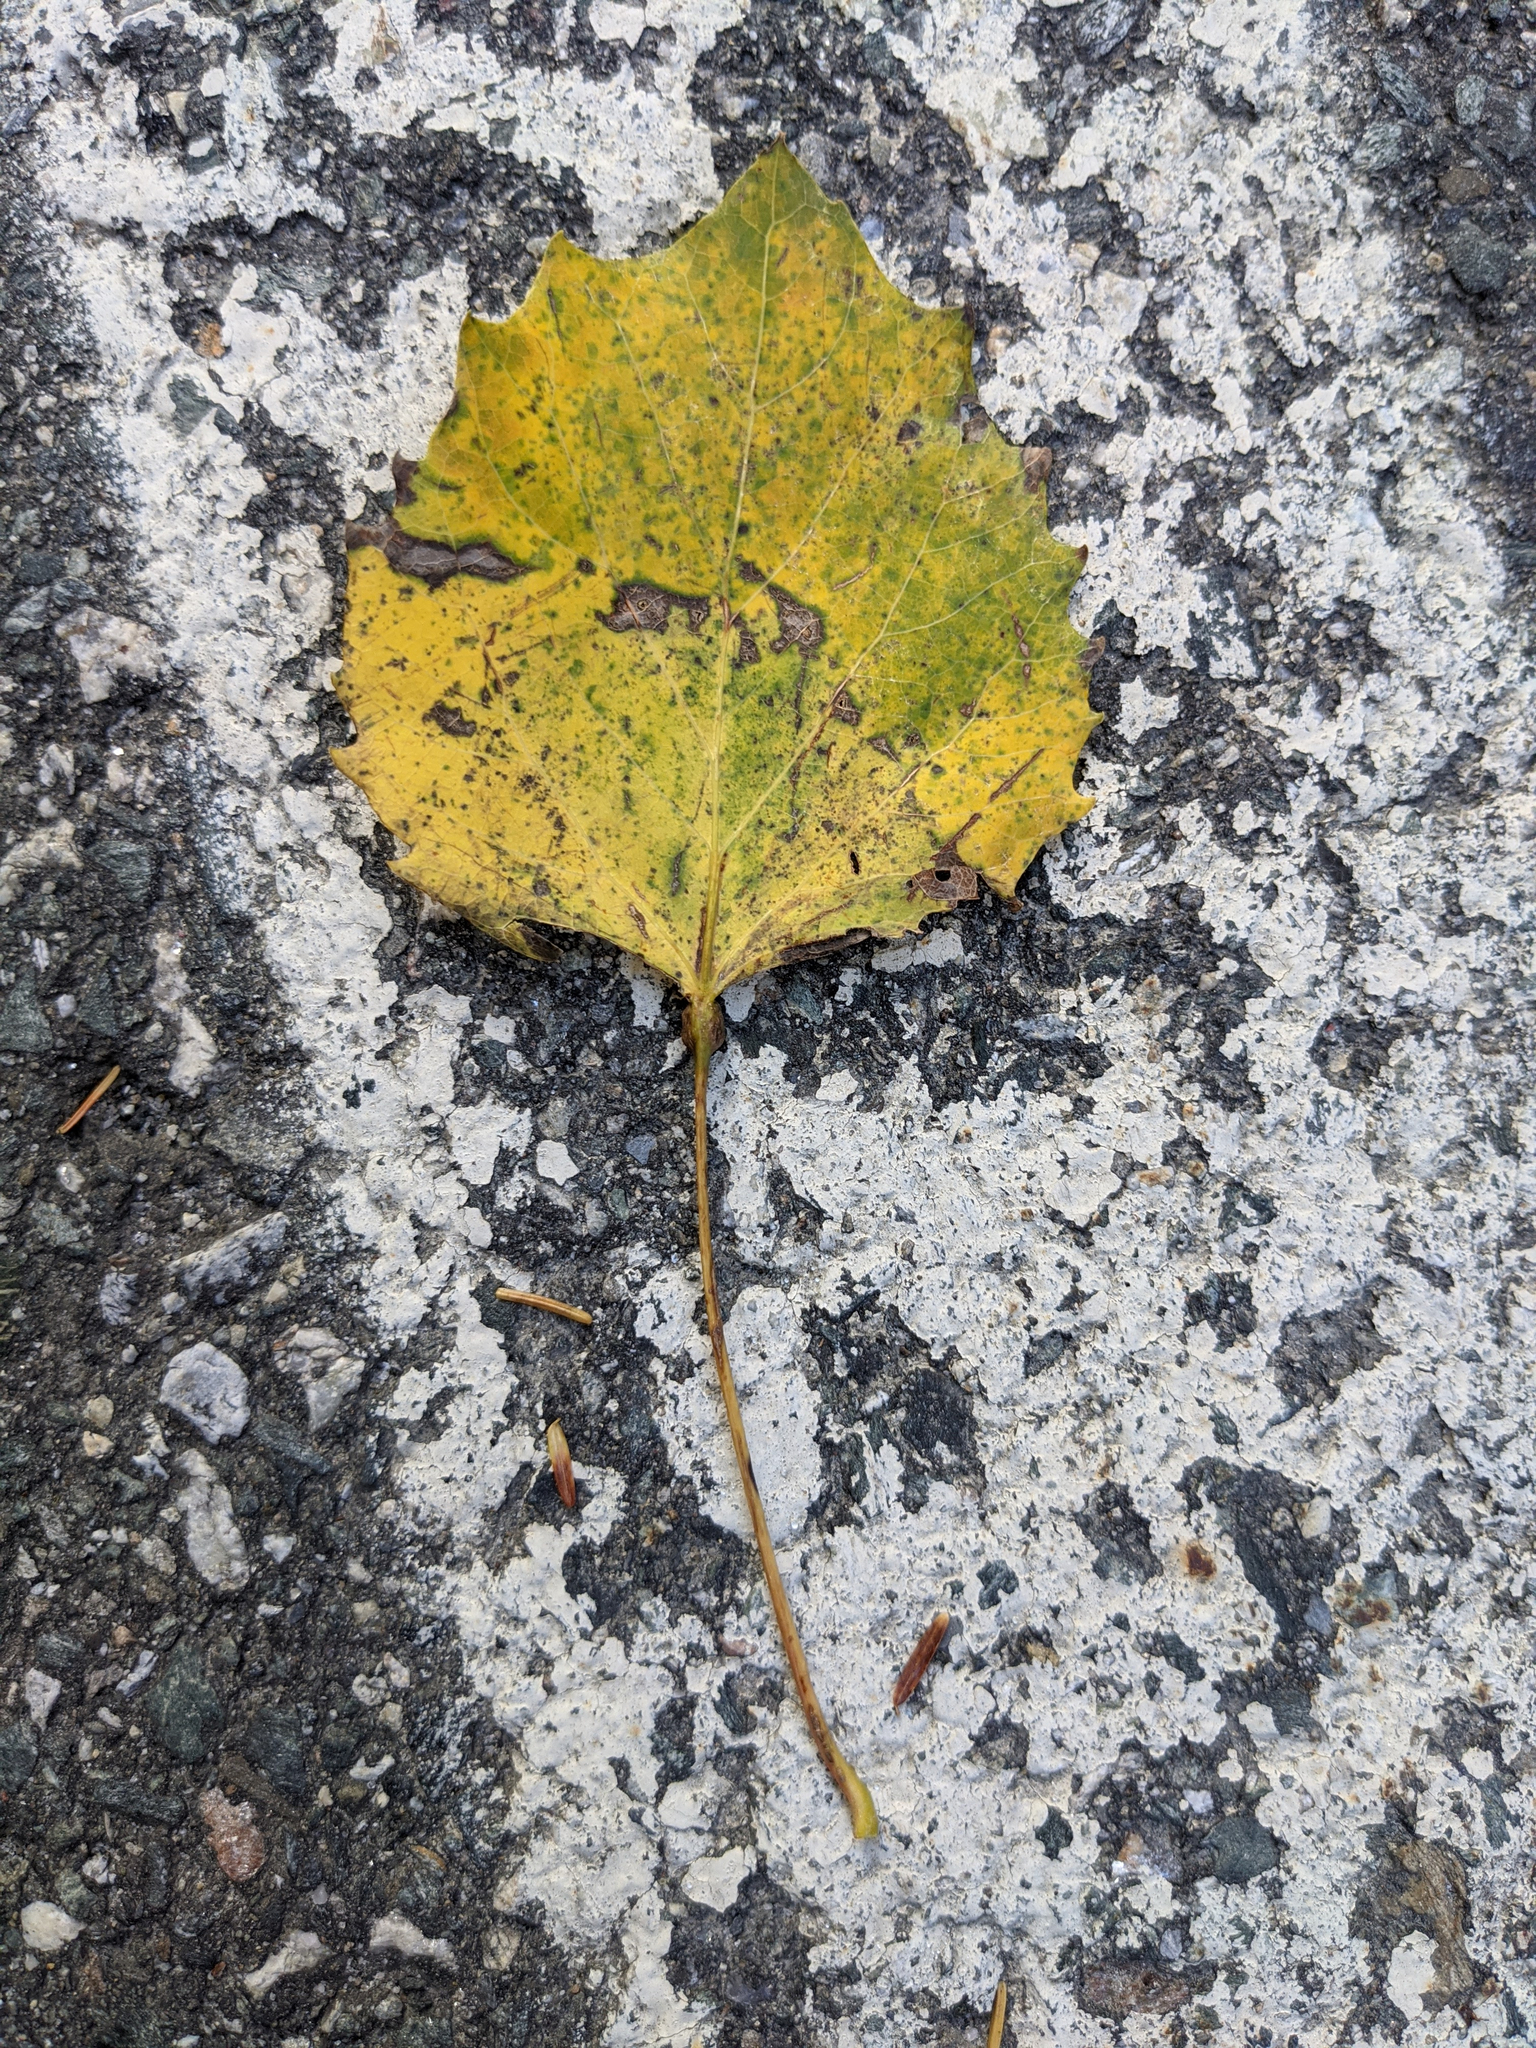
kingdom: Plantae
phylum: Tracheophyta
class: Magnoliopsida
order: Malpighiales
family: Salicaceae
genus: Populus
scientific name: Populus grandidentata
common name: Bigtooth aspen
